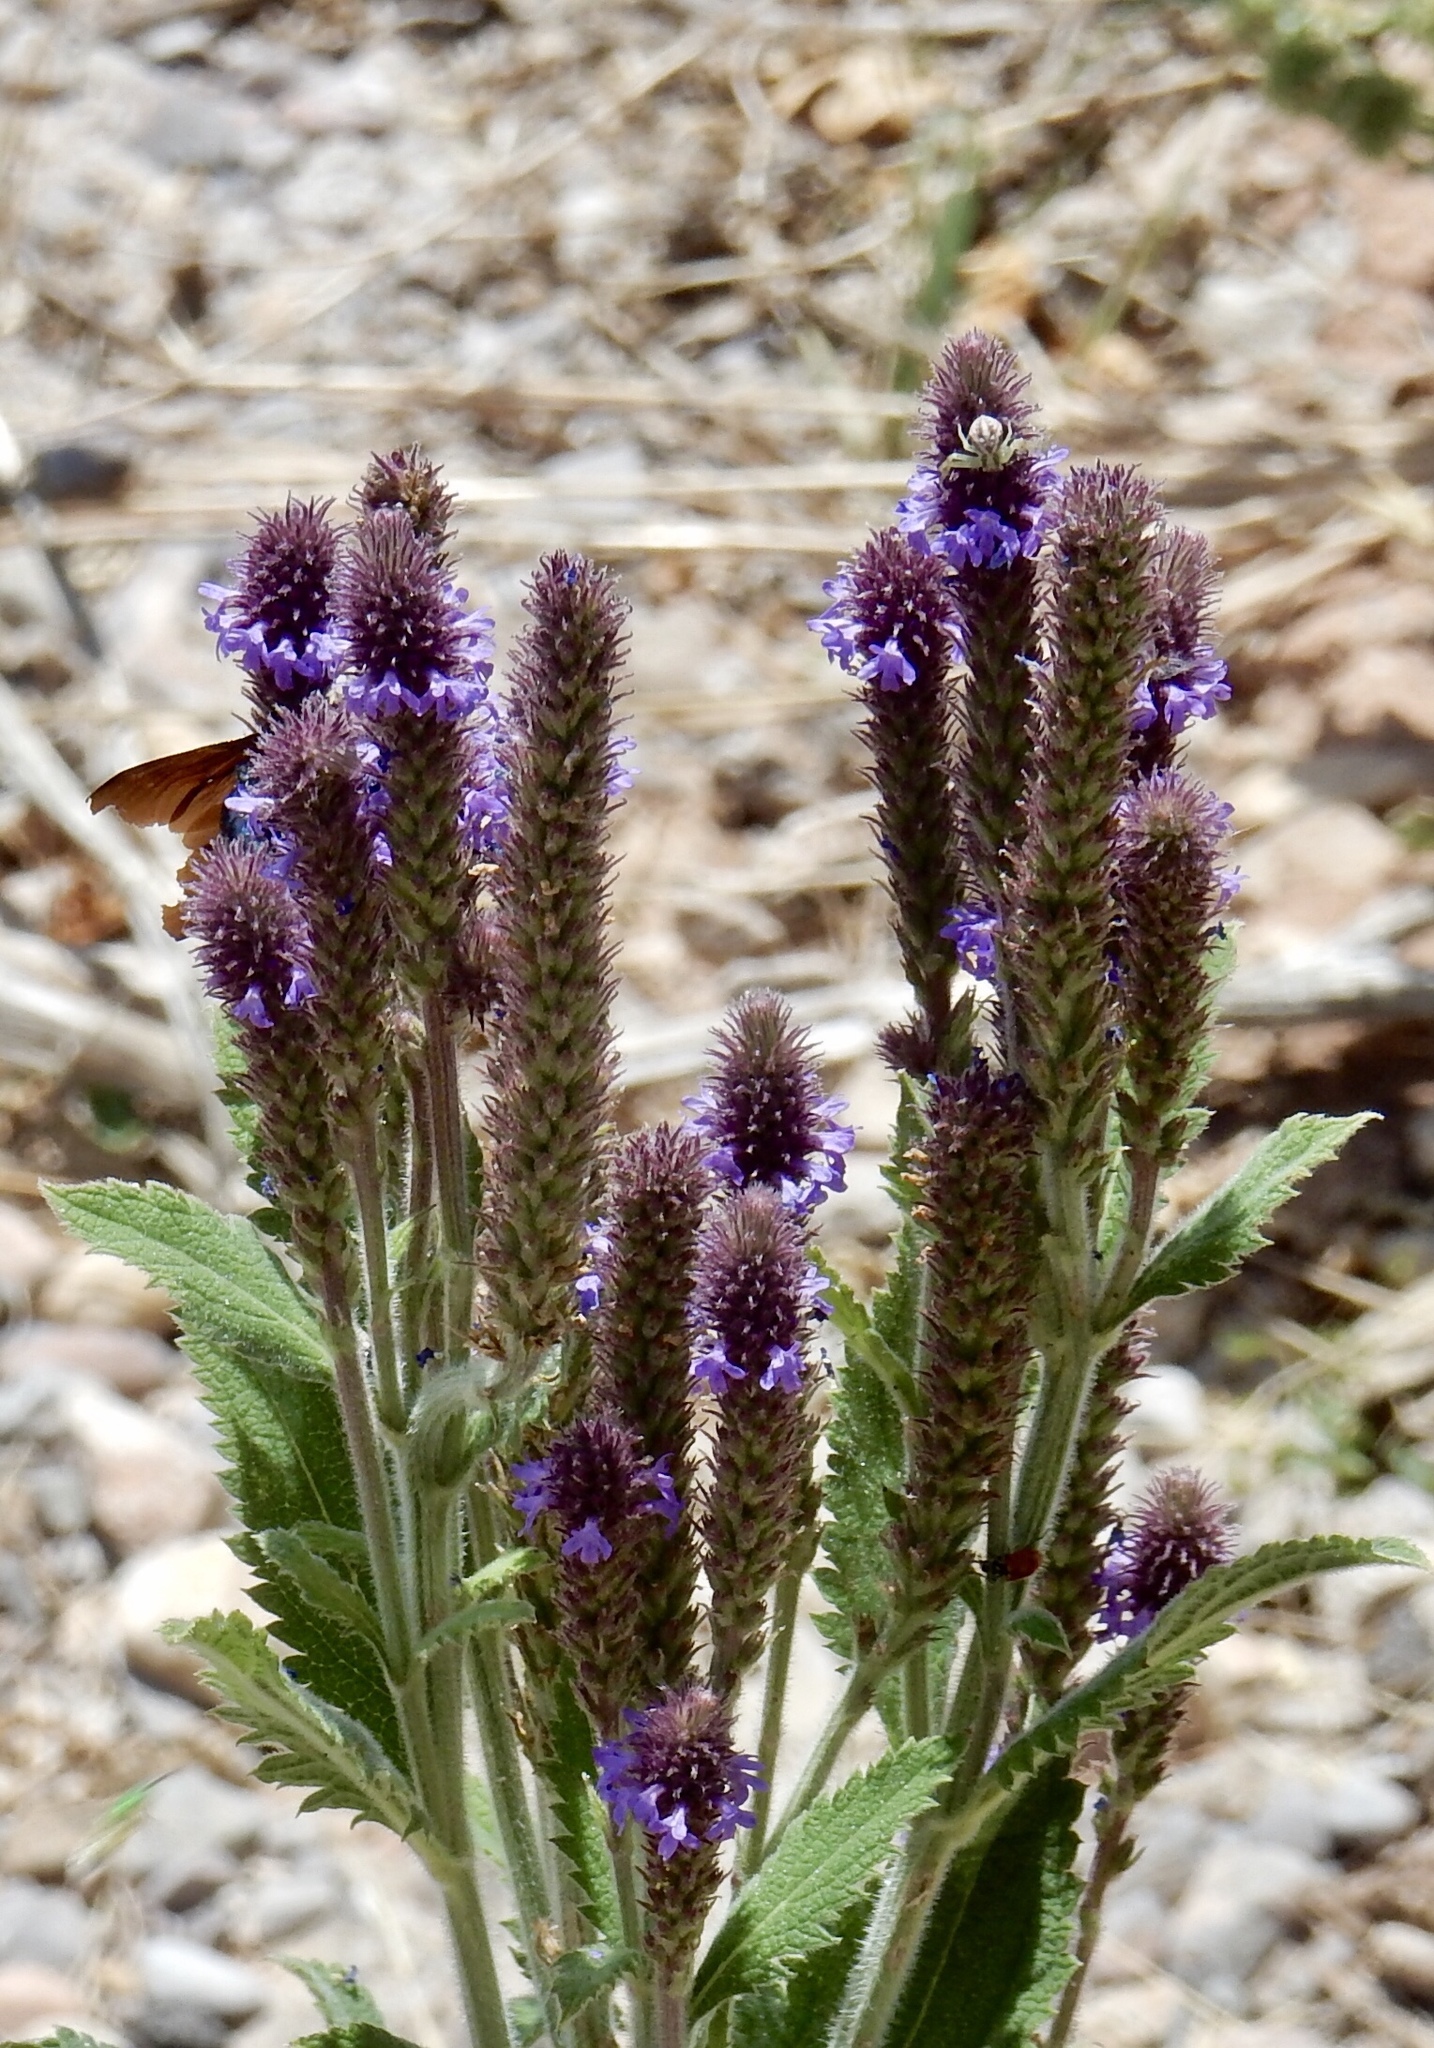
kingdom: Plantae
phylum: Tracheophyta
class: Magnoliopsida
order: Lamiales
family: Verbenaceae
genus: Verbena
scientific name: Verbena macdougalii
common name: New mexico vervain
